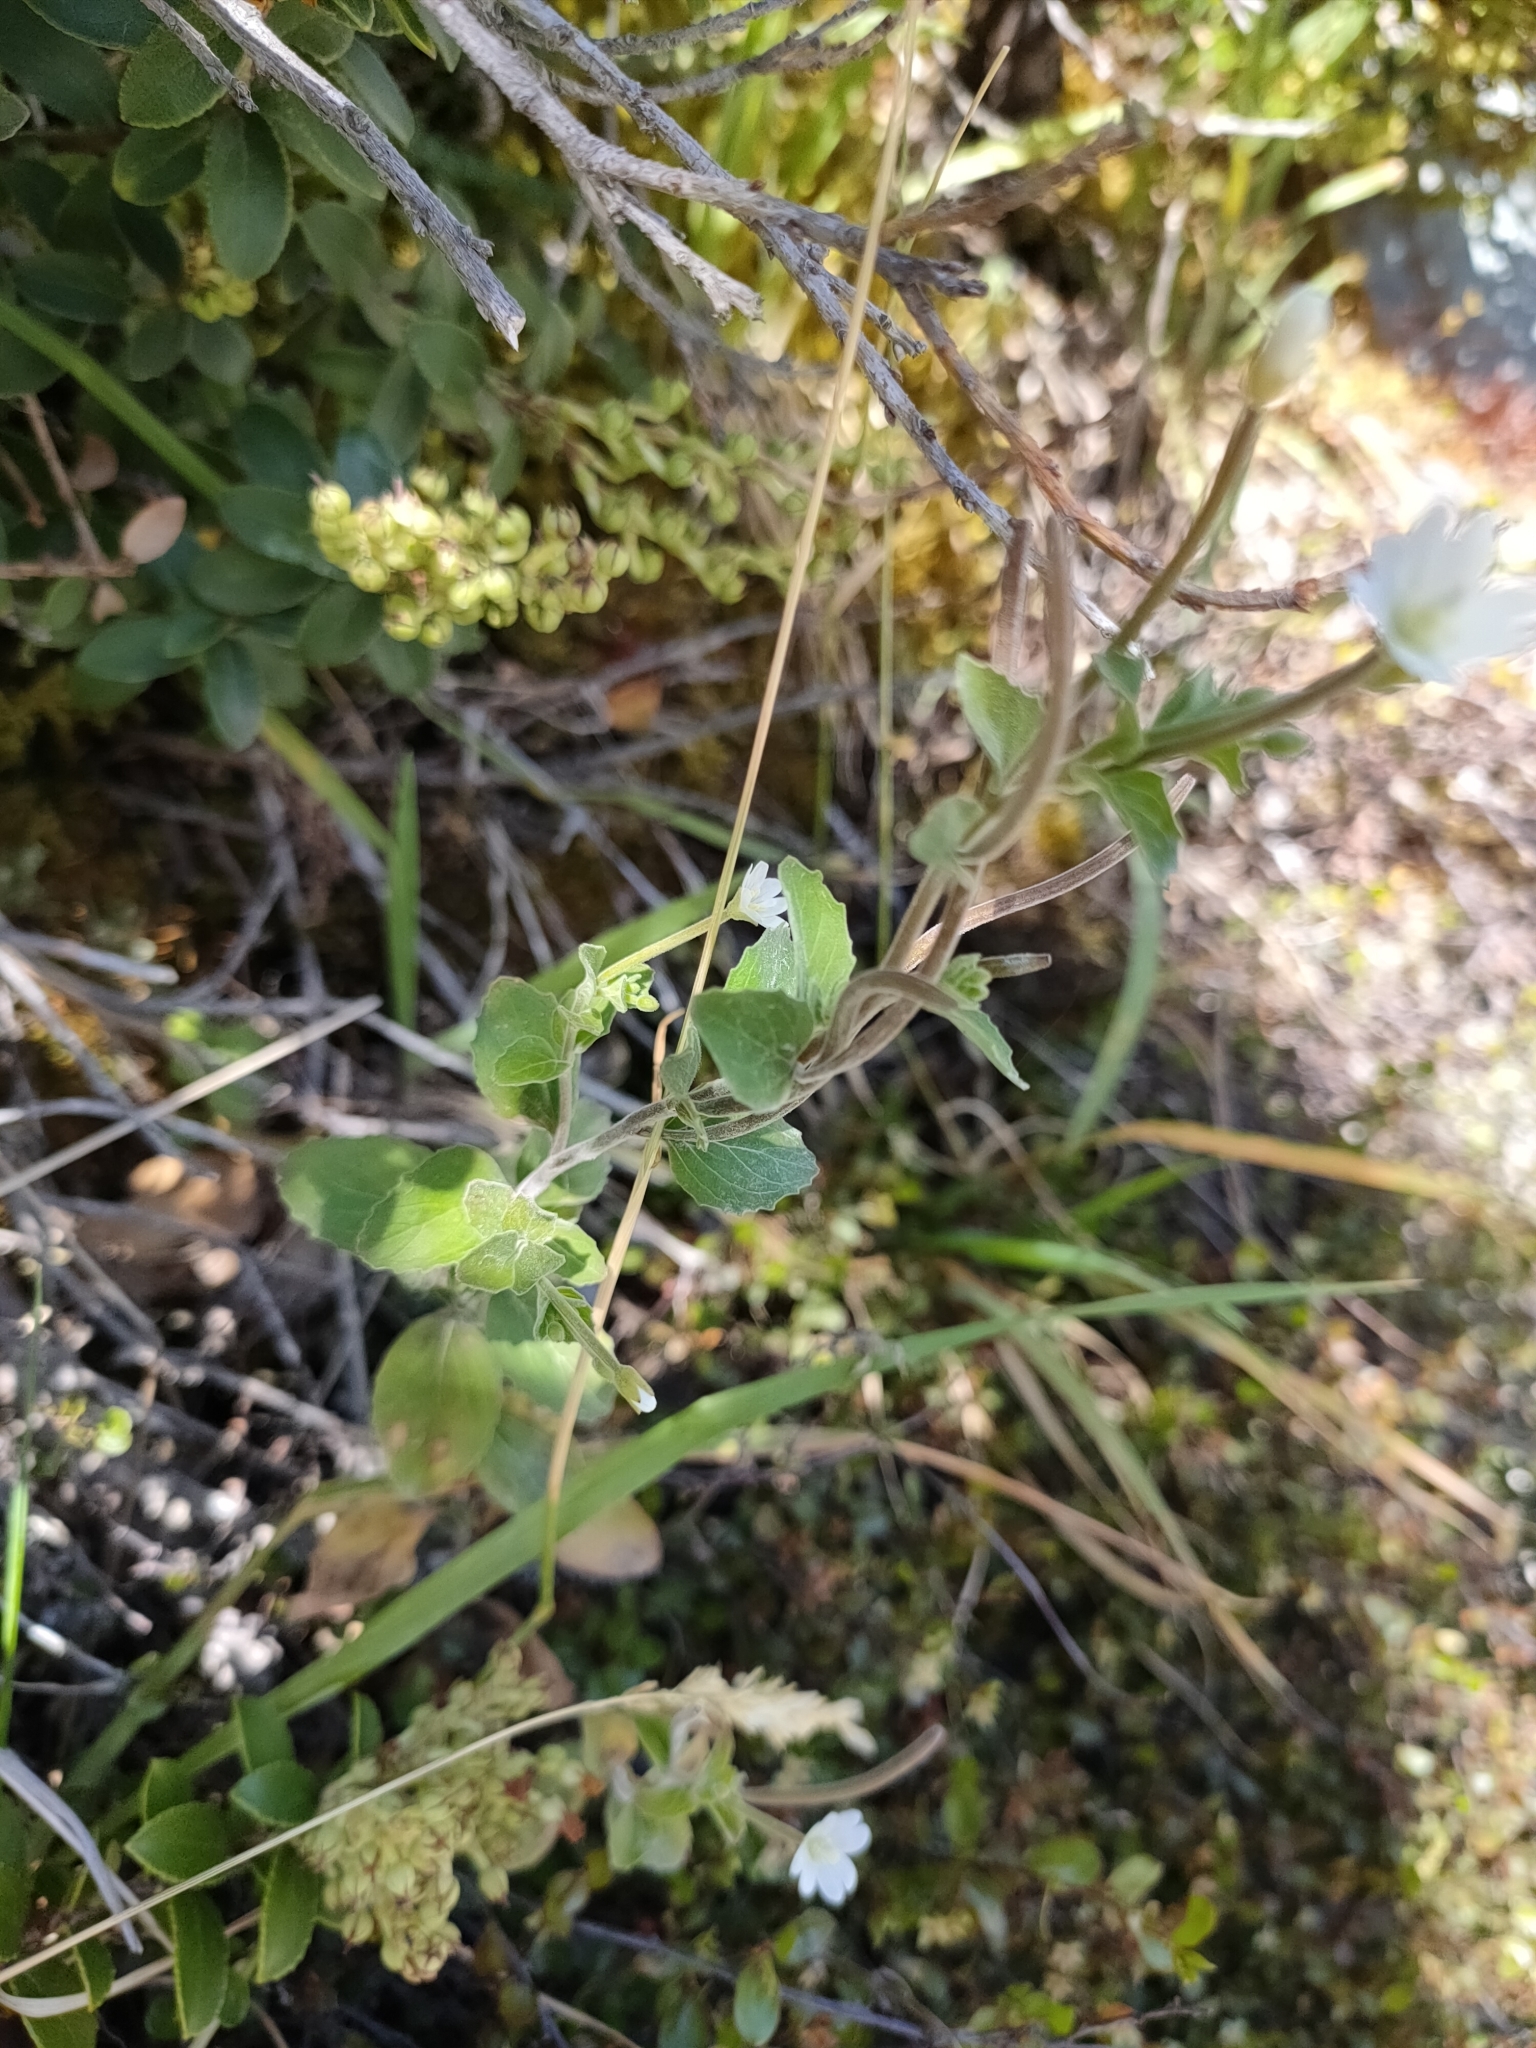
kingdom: Plantae
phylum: Tracheophyta
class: Magnoliopsida
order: Myrtales
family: Onagraceae
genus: Epilobium
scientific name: Epilobium pubens
